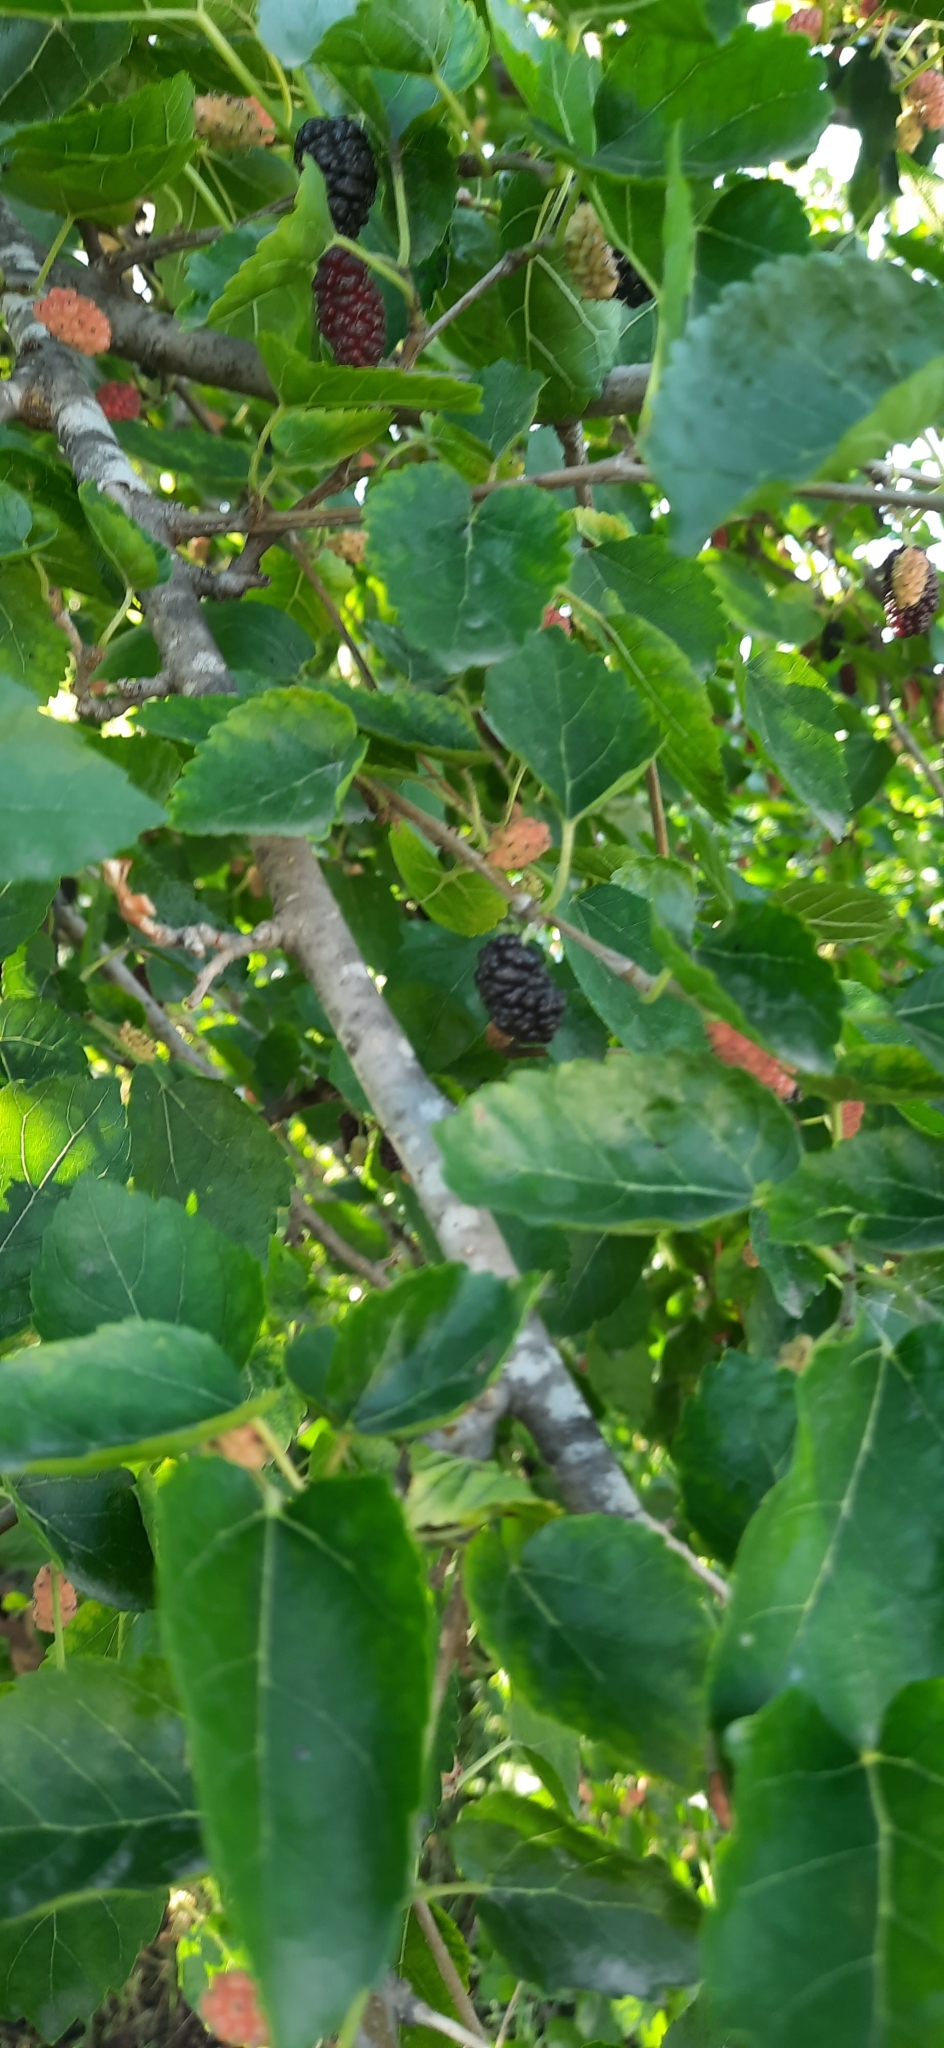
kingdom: Plantae
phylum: Tracheophyta
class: Magnoliopsida
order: Rosales
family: Moraceae
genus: Morus
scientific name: Morus alba
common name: White mulberry
